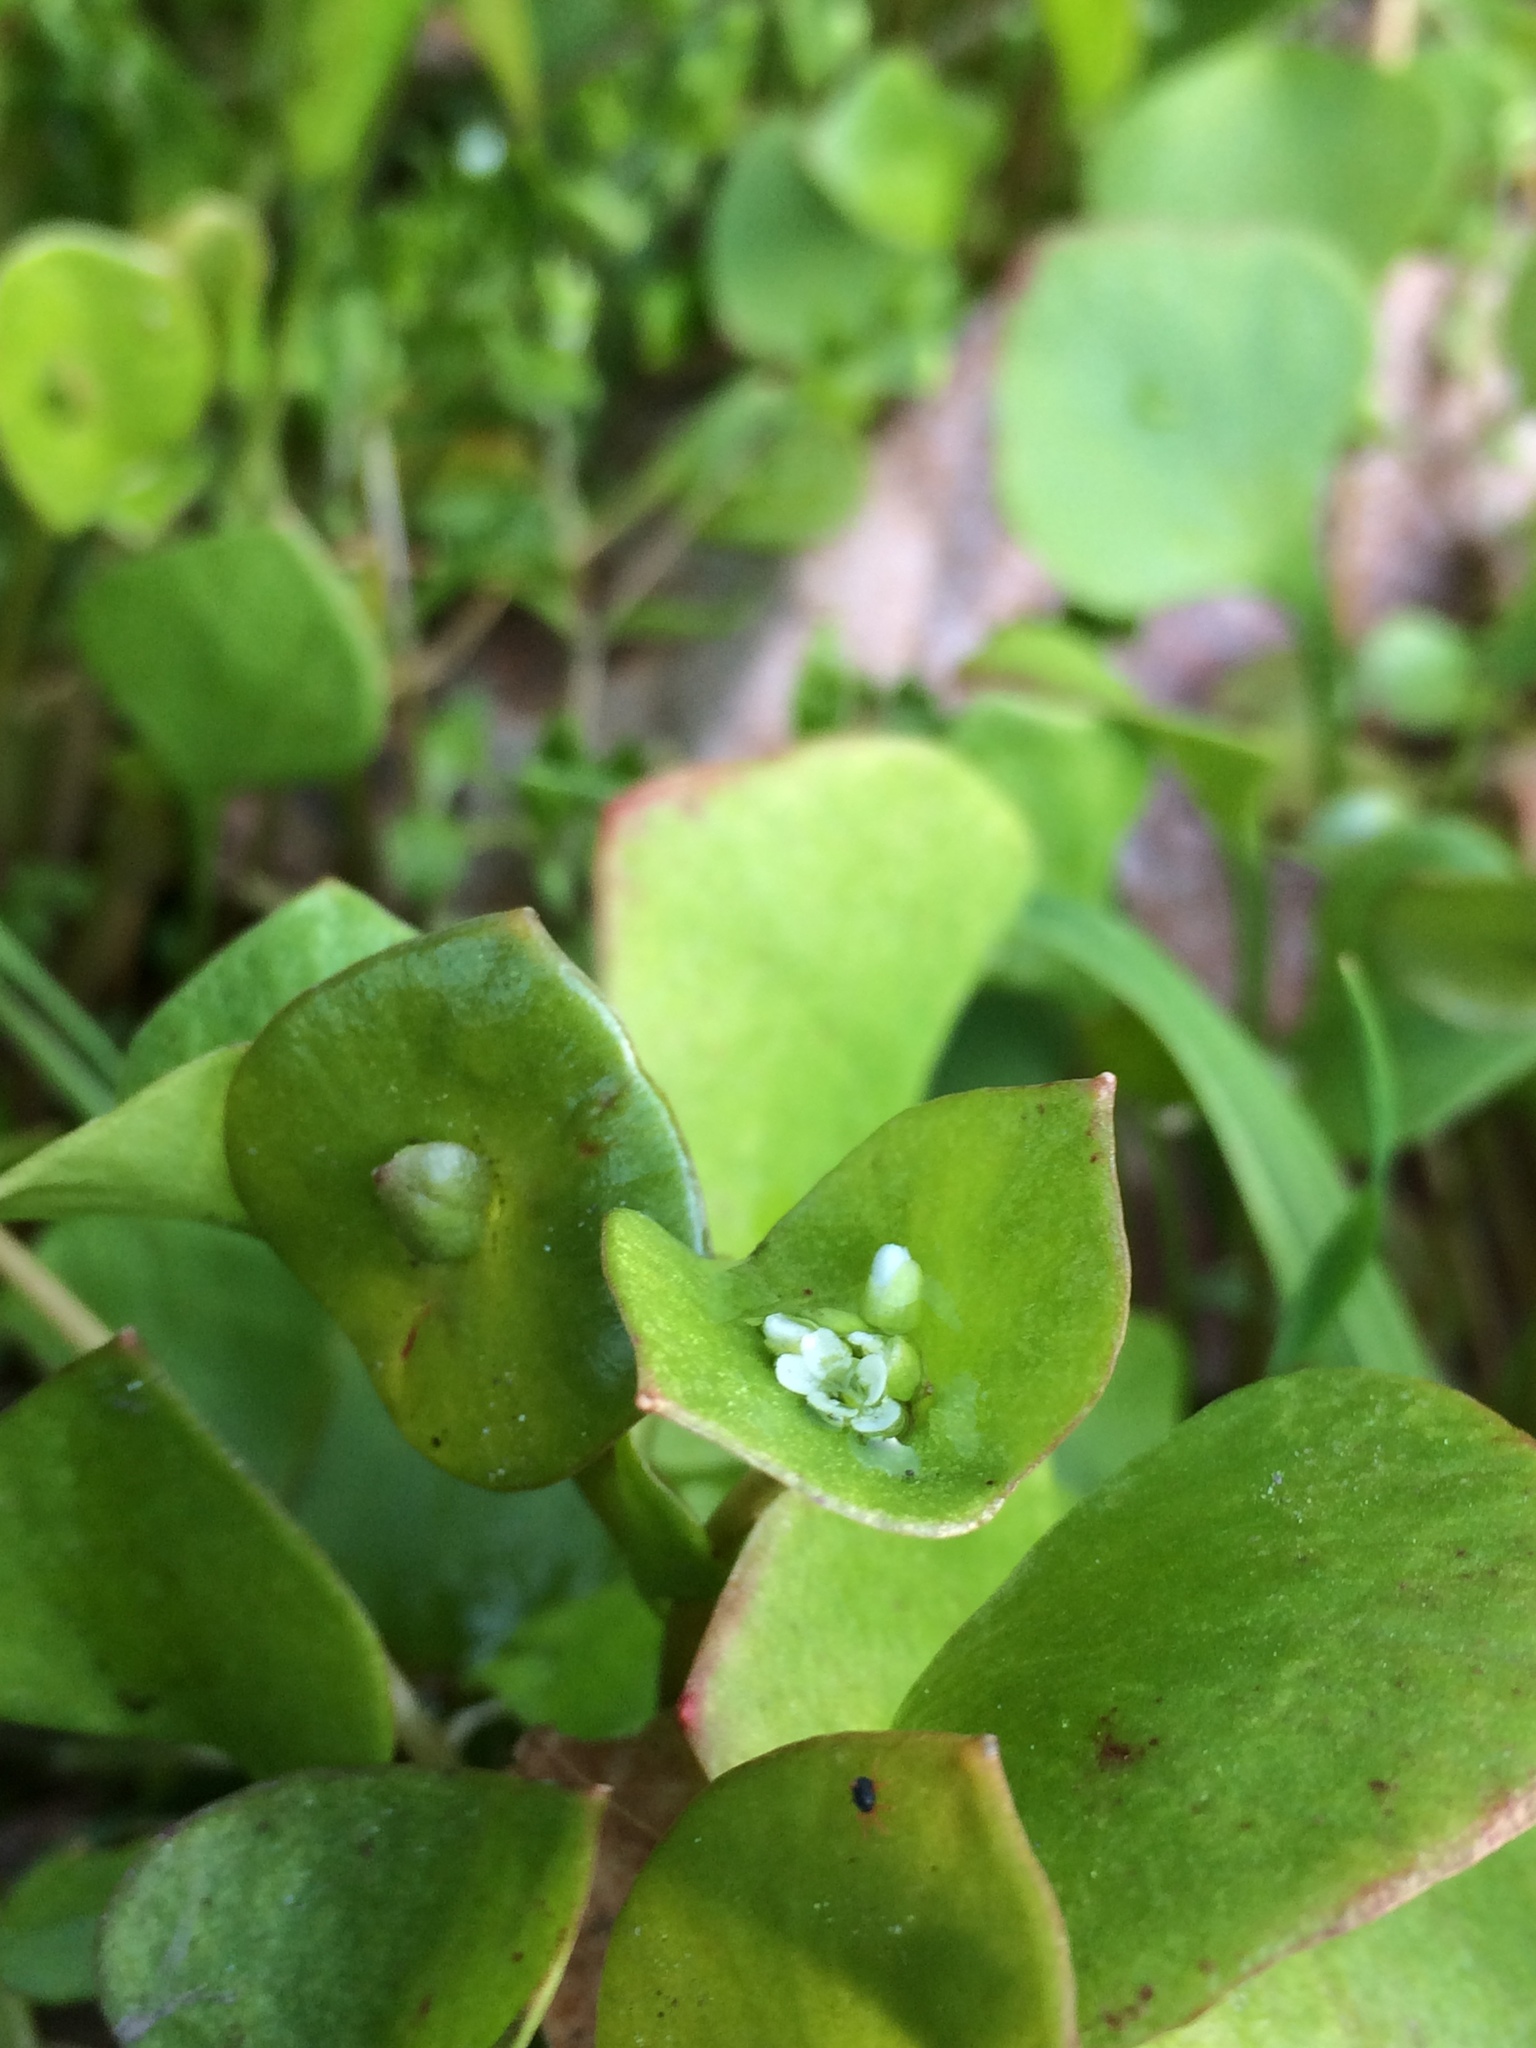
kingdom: Plantae
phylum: Tracheophyta
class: Magnoliopsida
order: Caryophyllales
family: Montiaceae
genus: Claytonia
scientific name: Claytonia perfoliata
